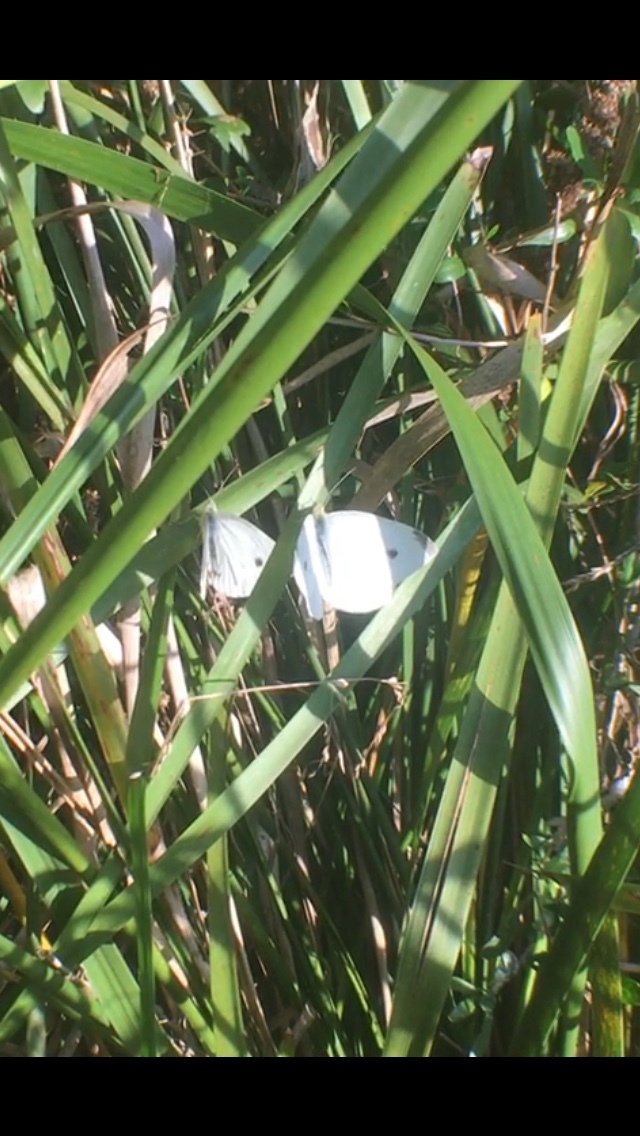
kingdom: Animalia
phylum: Arthropoda
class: Insecta
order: Lepidoptera
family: Pieridae
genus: Pieris
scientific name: Pieris rapae
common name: Small white
